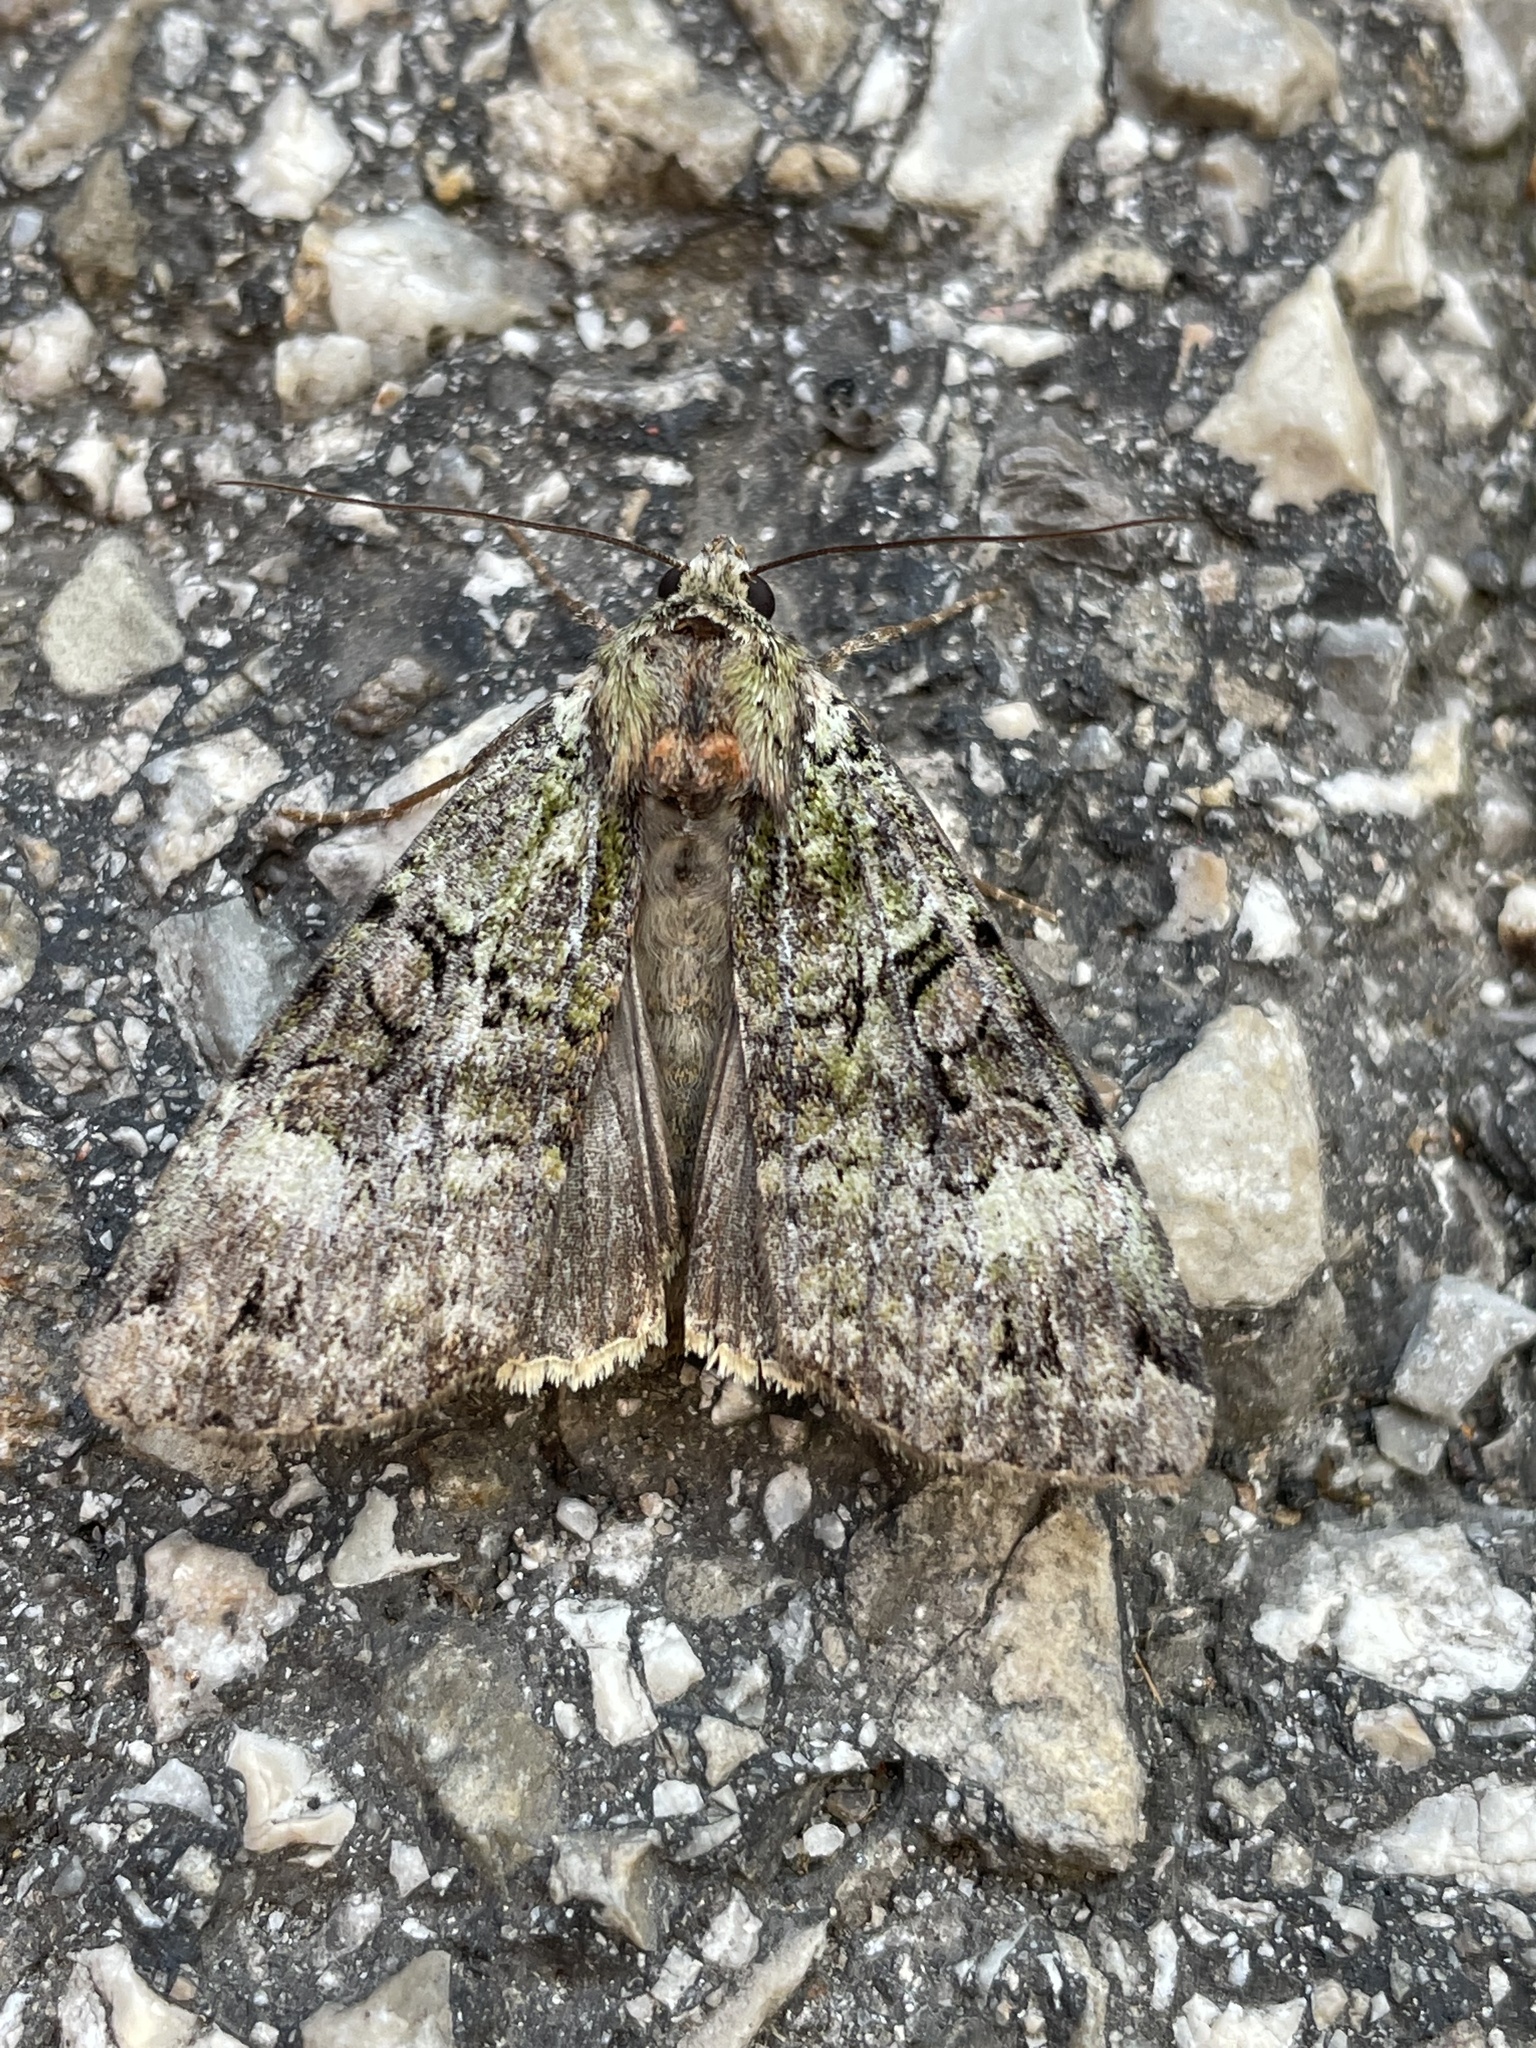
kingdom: Animalia
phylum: Arthropoda
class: Insecta
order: Lepidoptera
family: Noctuidae
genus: Anaplectoides
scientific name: Anaplectoides prasina
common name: Green arches
